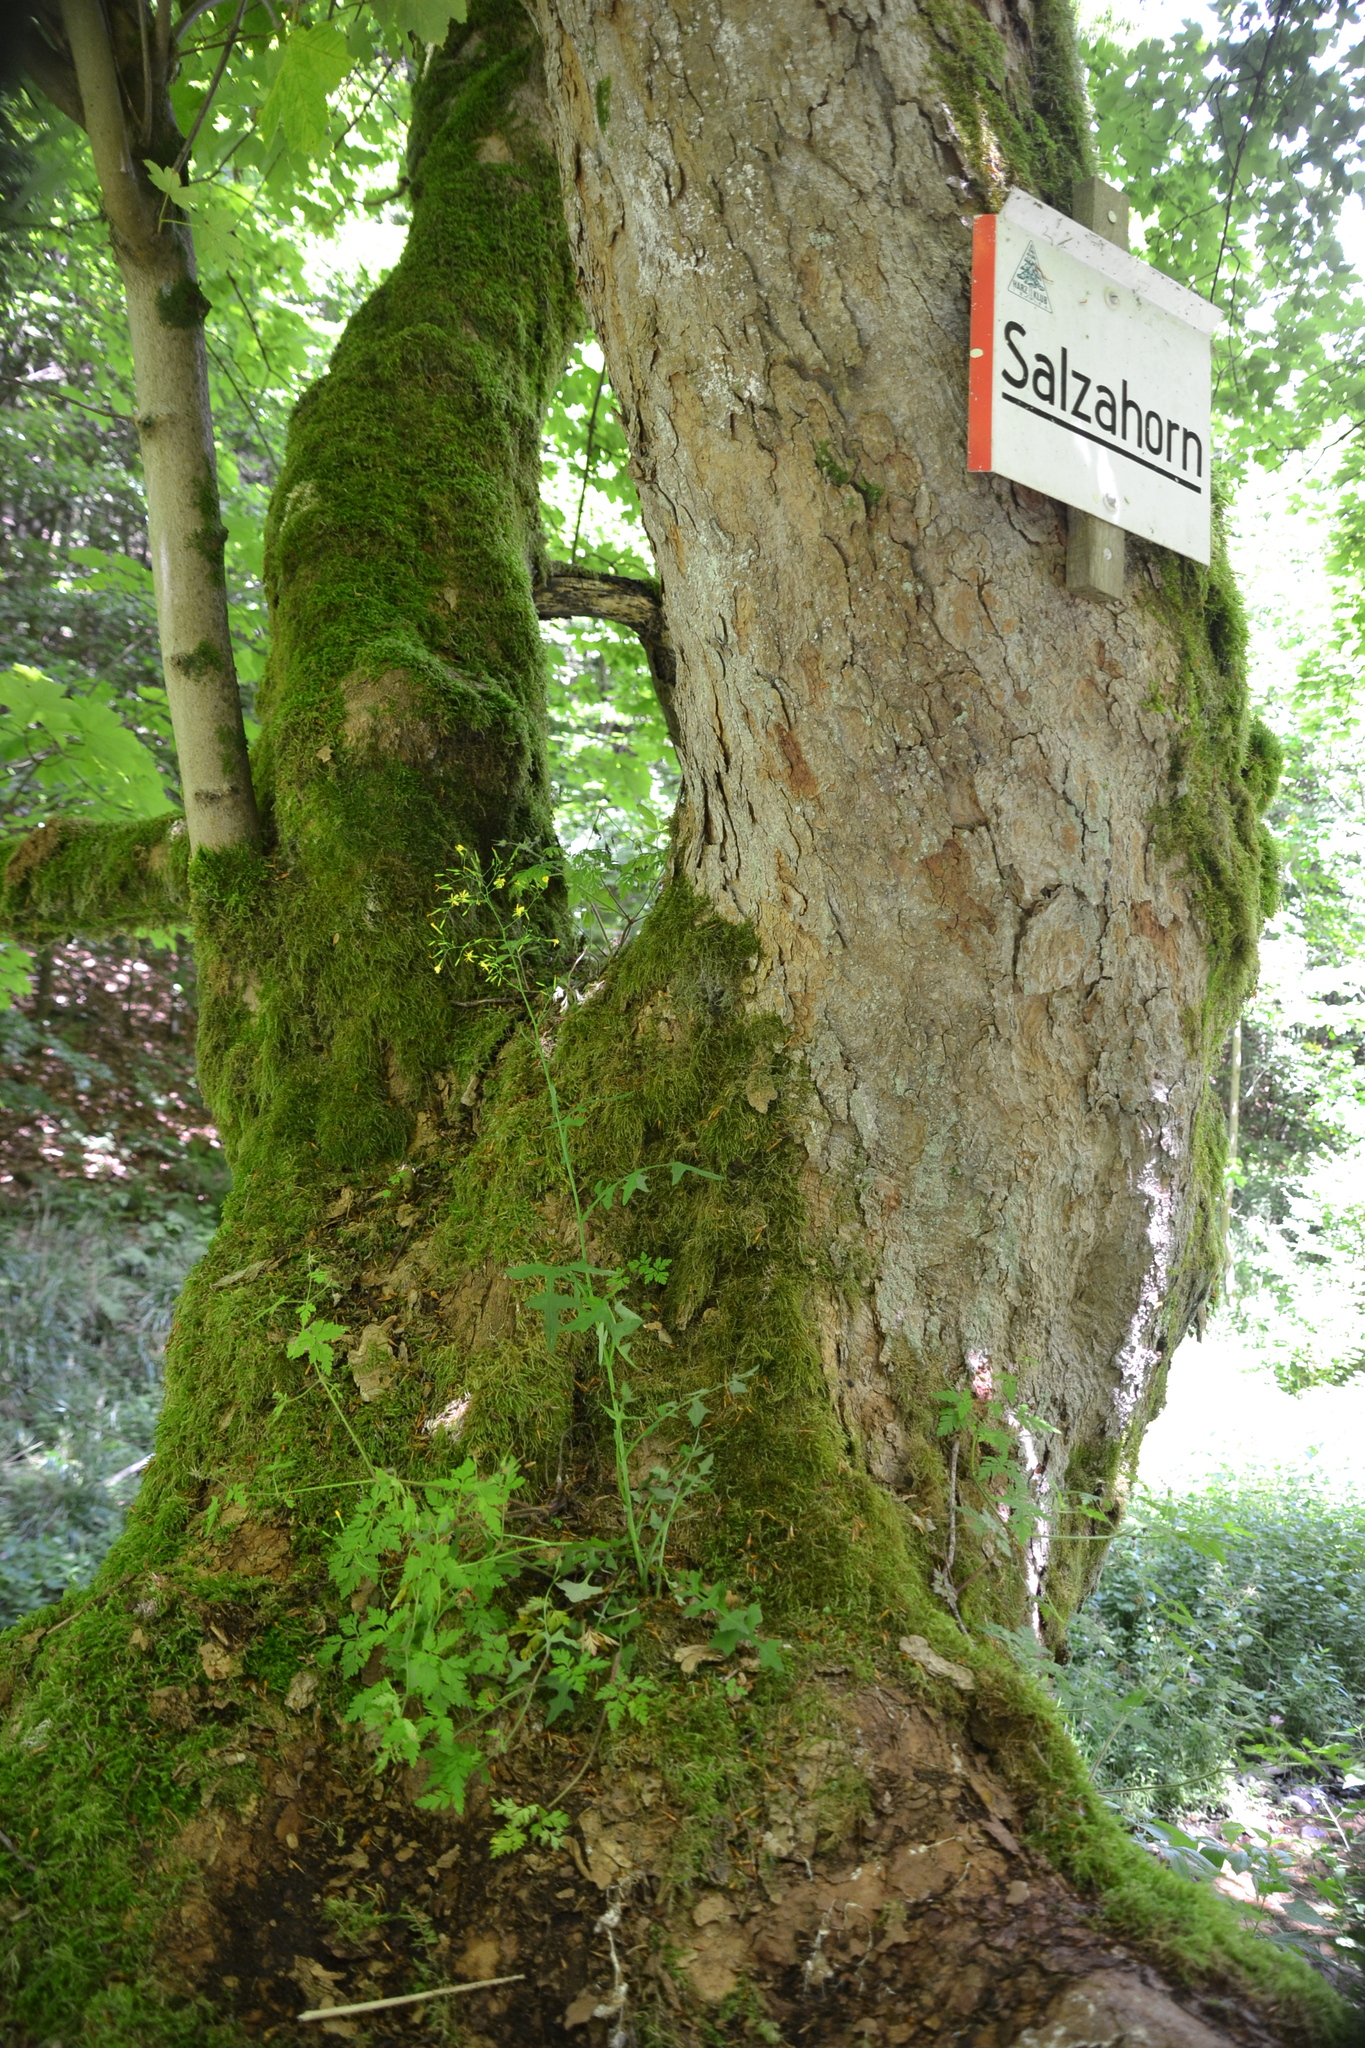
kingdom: Plantae
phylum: Tracheophyta
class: Magnoliopsida
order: Asterales
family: Asteraceae
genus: Mycelis
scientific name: Mycelis muralis
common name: Wall lettuce
